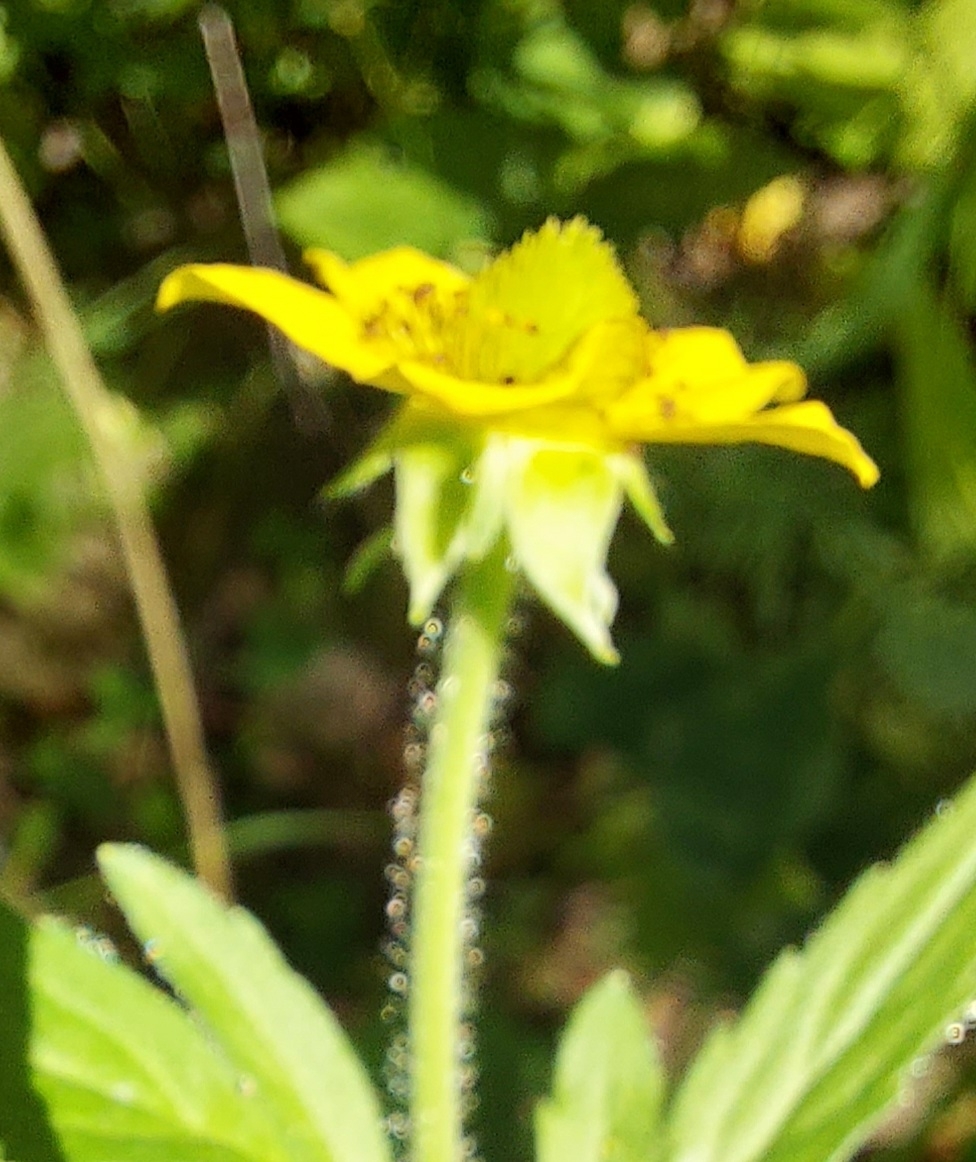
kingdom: Plantae
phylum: Tracheophyta
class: Magnoliopsida
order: Rosales
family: Rosaceae
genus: Geum
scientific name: Geum aleppicum
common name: Yellow avens
